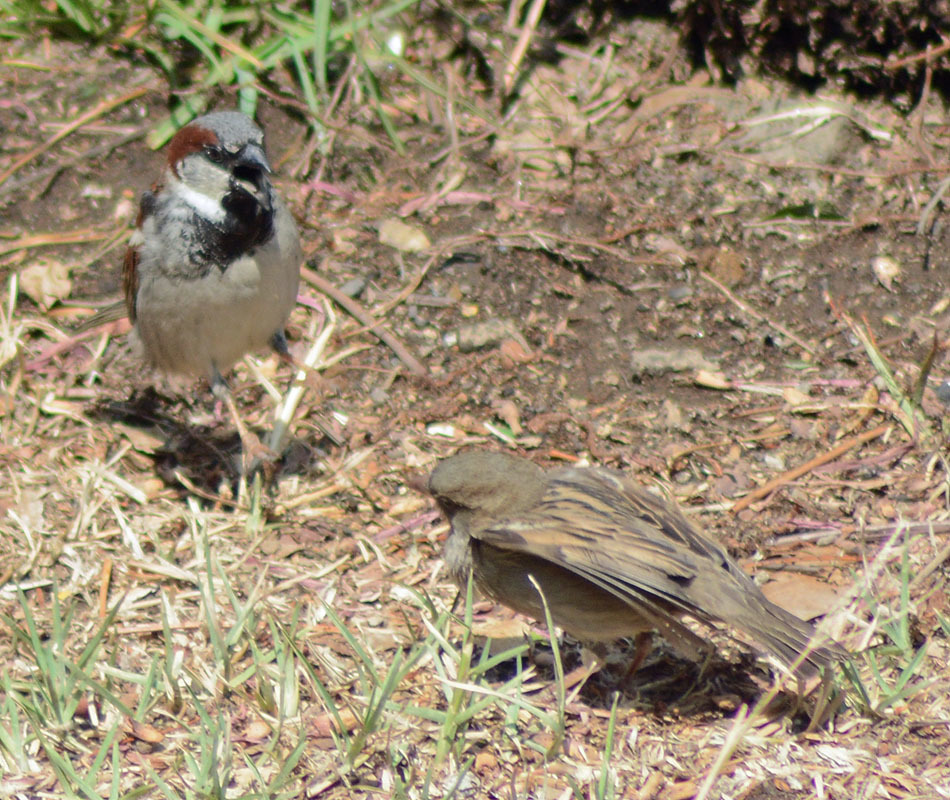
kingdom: Animalia
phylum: Chordata
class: Aves
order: Passeriformes
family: Passeridae
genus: Passer
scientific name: Passer domesticus
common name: House sparrow
